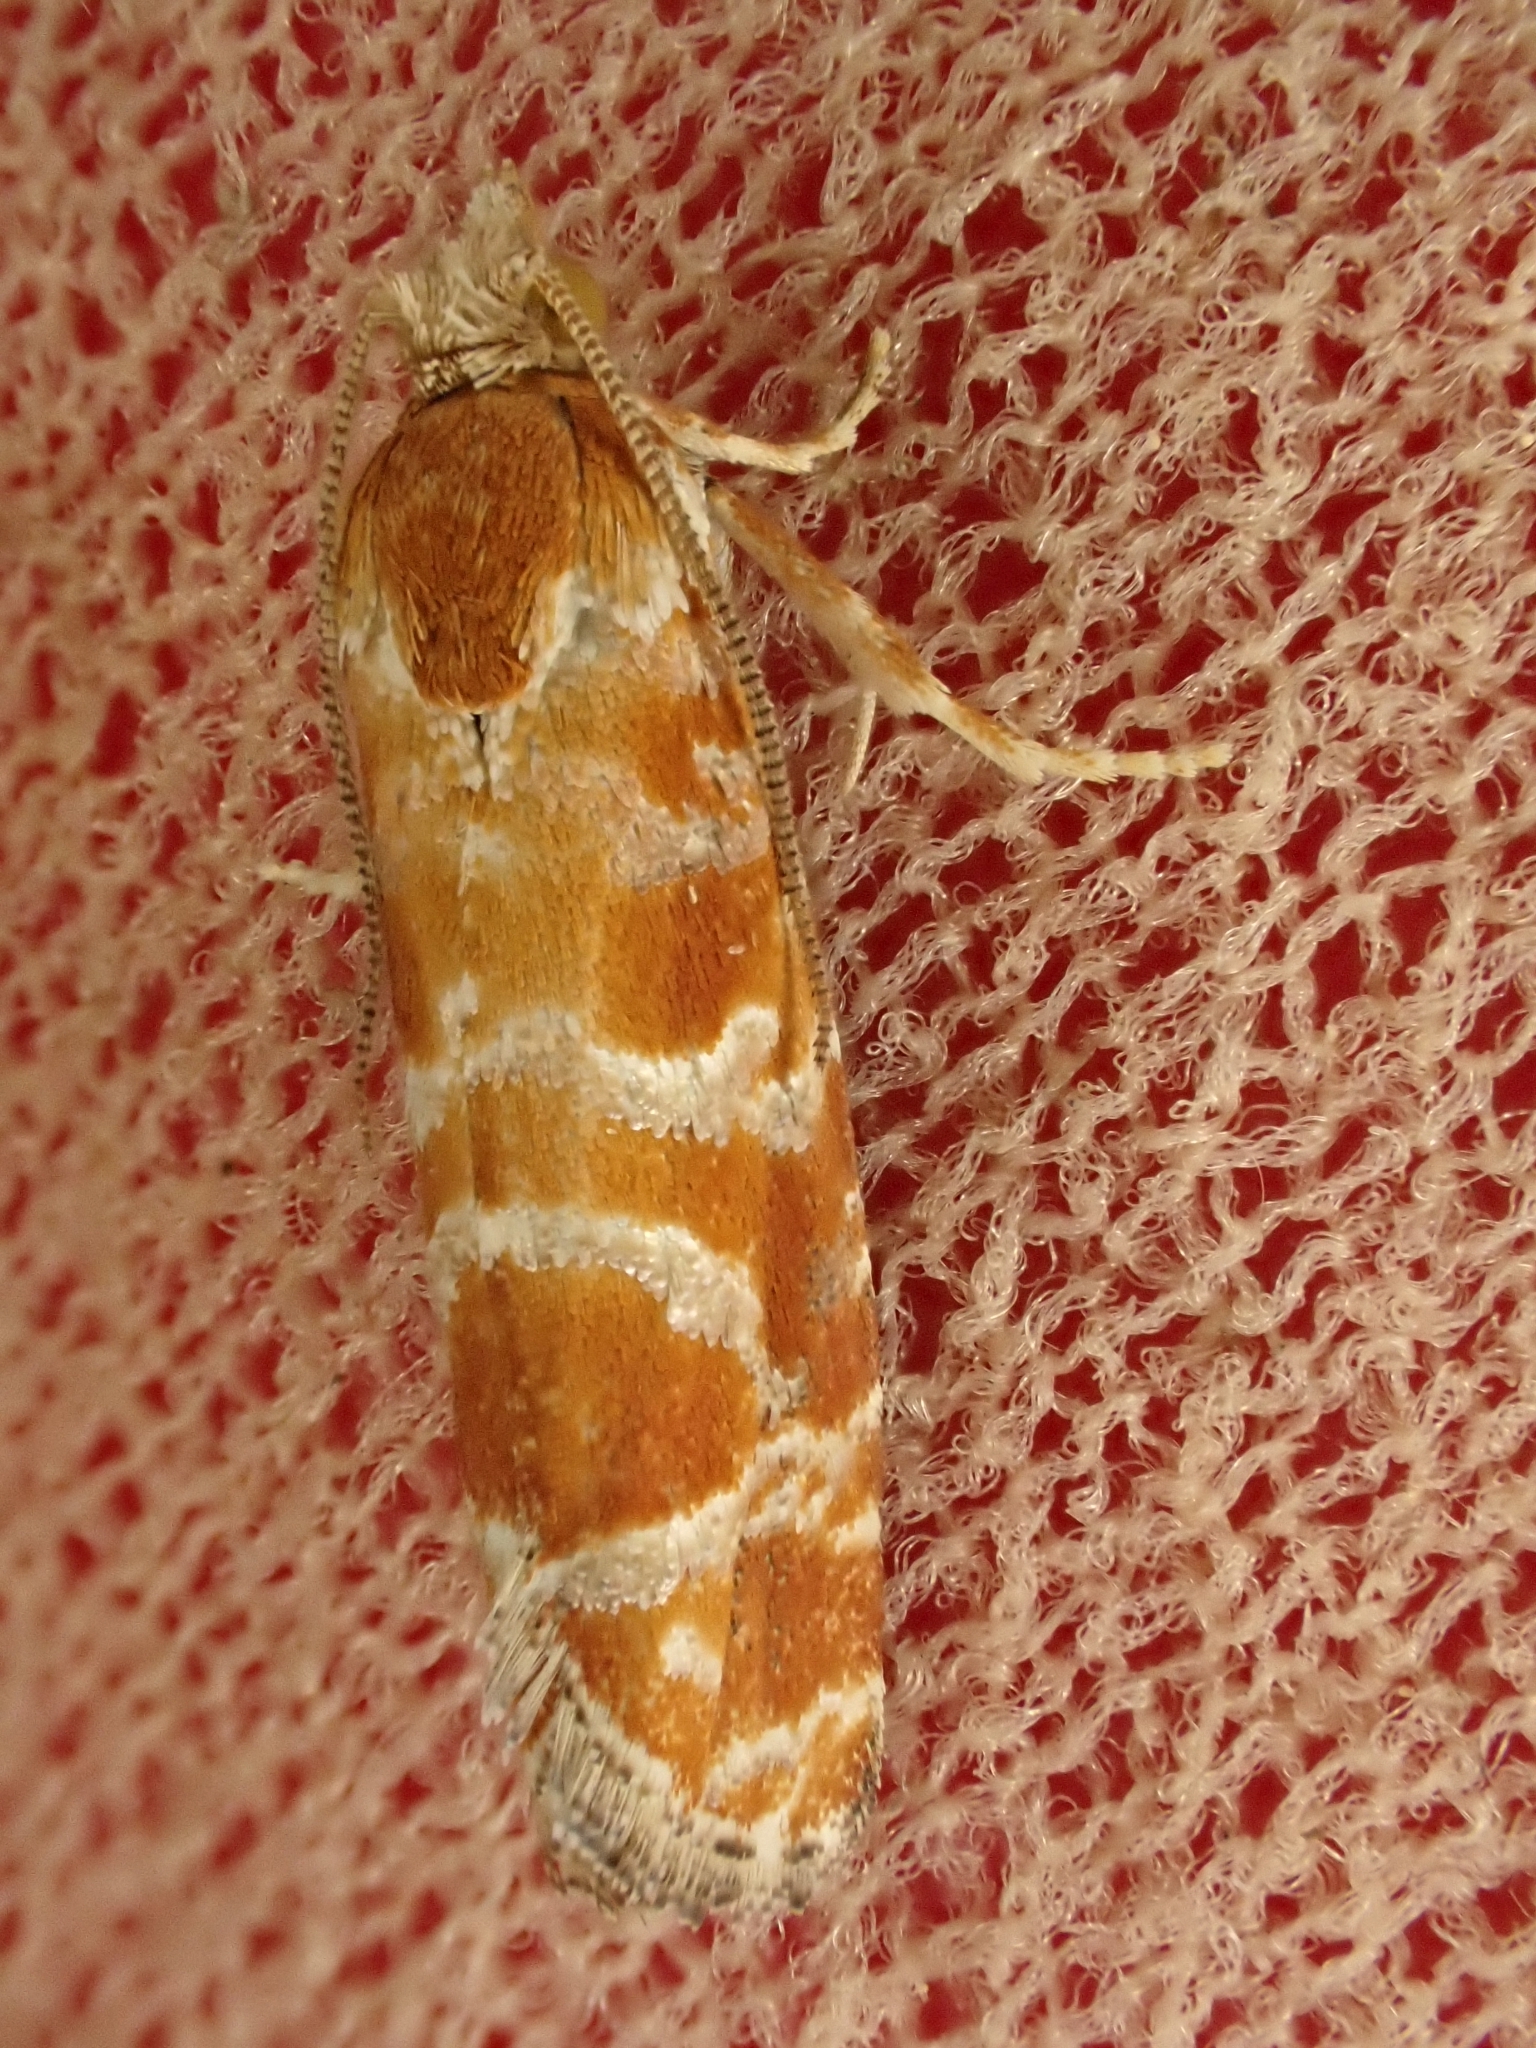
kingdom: Animalia
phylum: Arthropoda
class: Insecta
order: Lepidoptera
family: Tortricidae
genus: Rhyacionia
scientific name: Rhyacionia pinicolana
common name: Orange-spotted shoot
